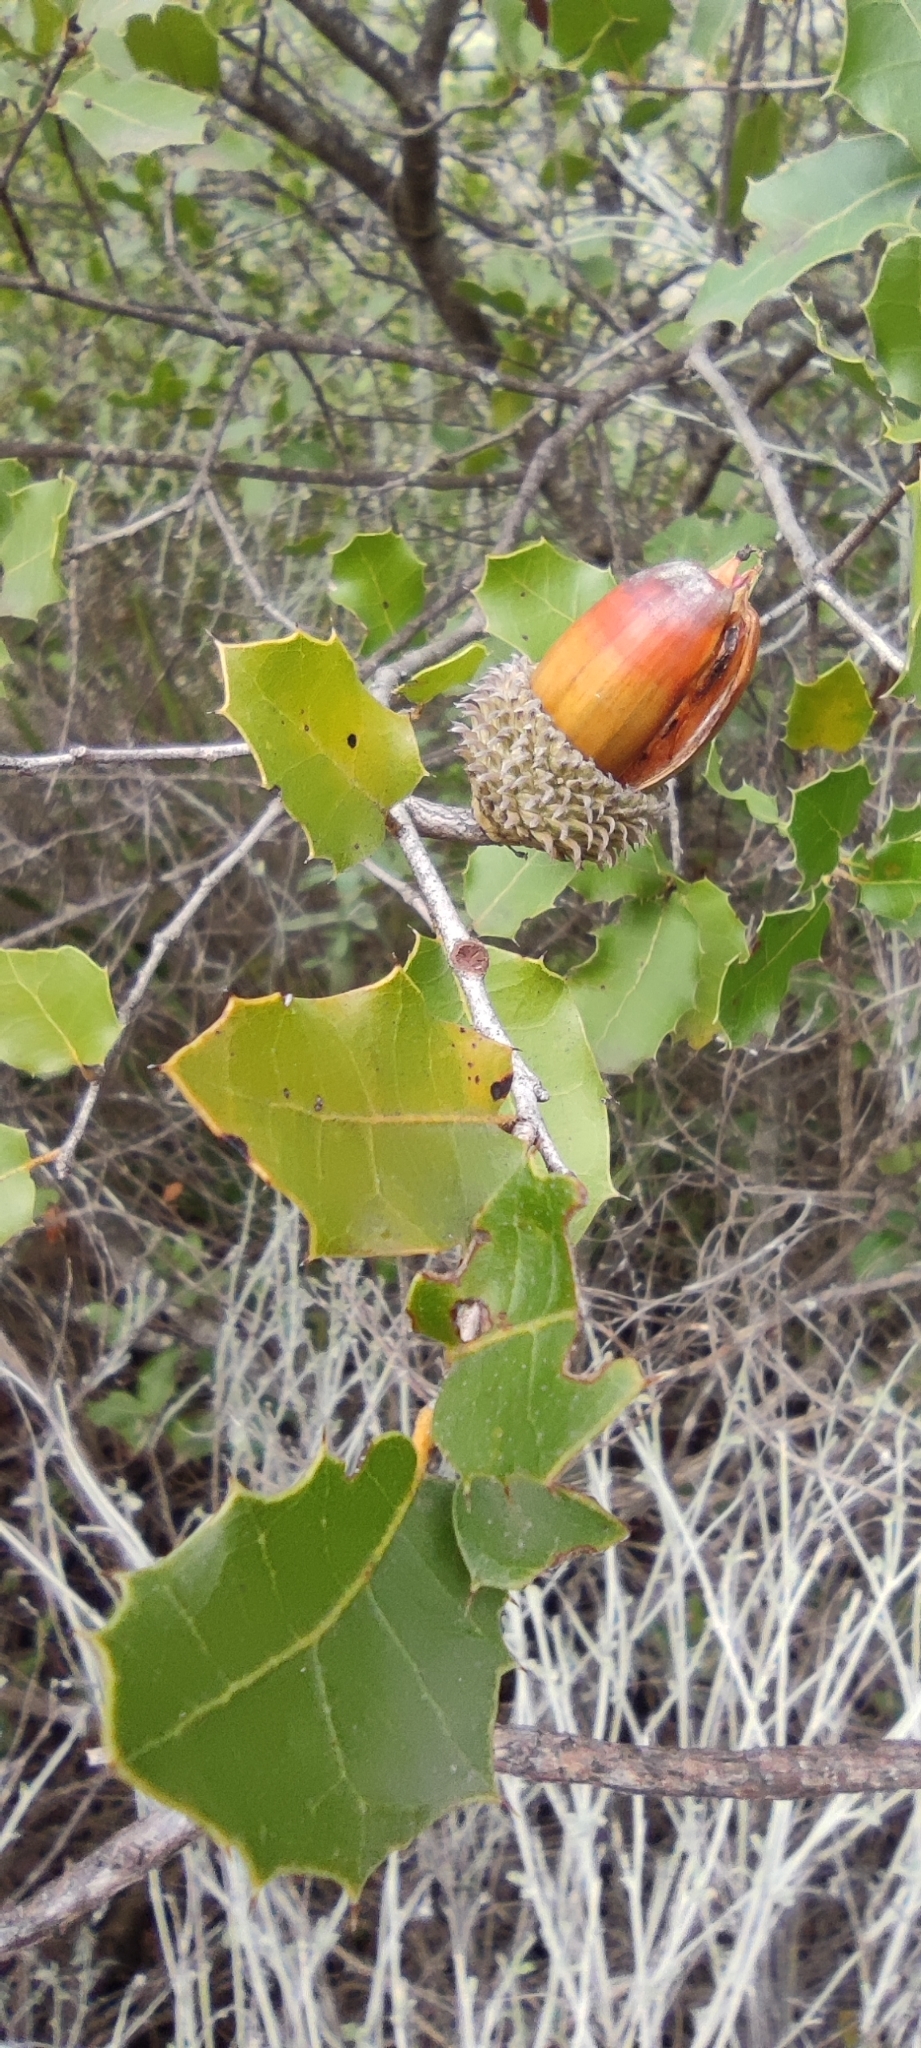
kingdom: Plantae
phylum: Tracheophyta
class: Magnoliopsida
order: Fagales
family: Fagaceae
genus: Quercus
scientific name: Quercus coccifera
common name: Kermes oak
